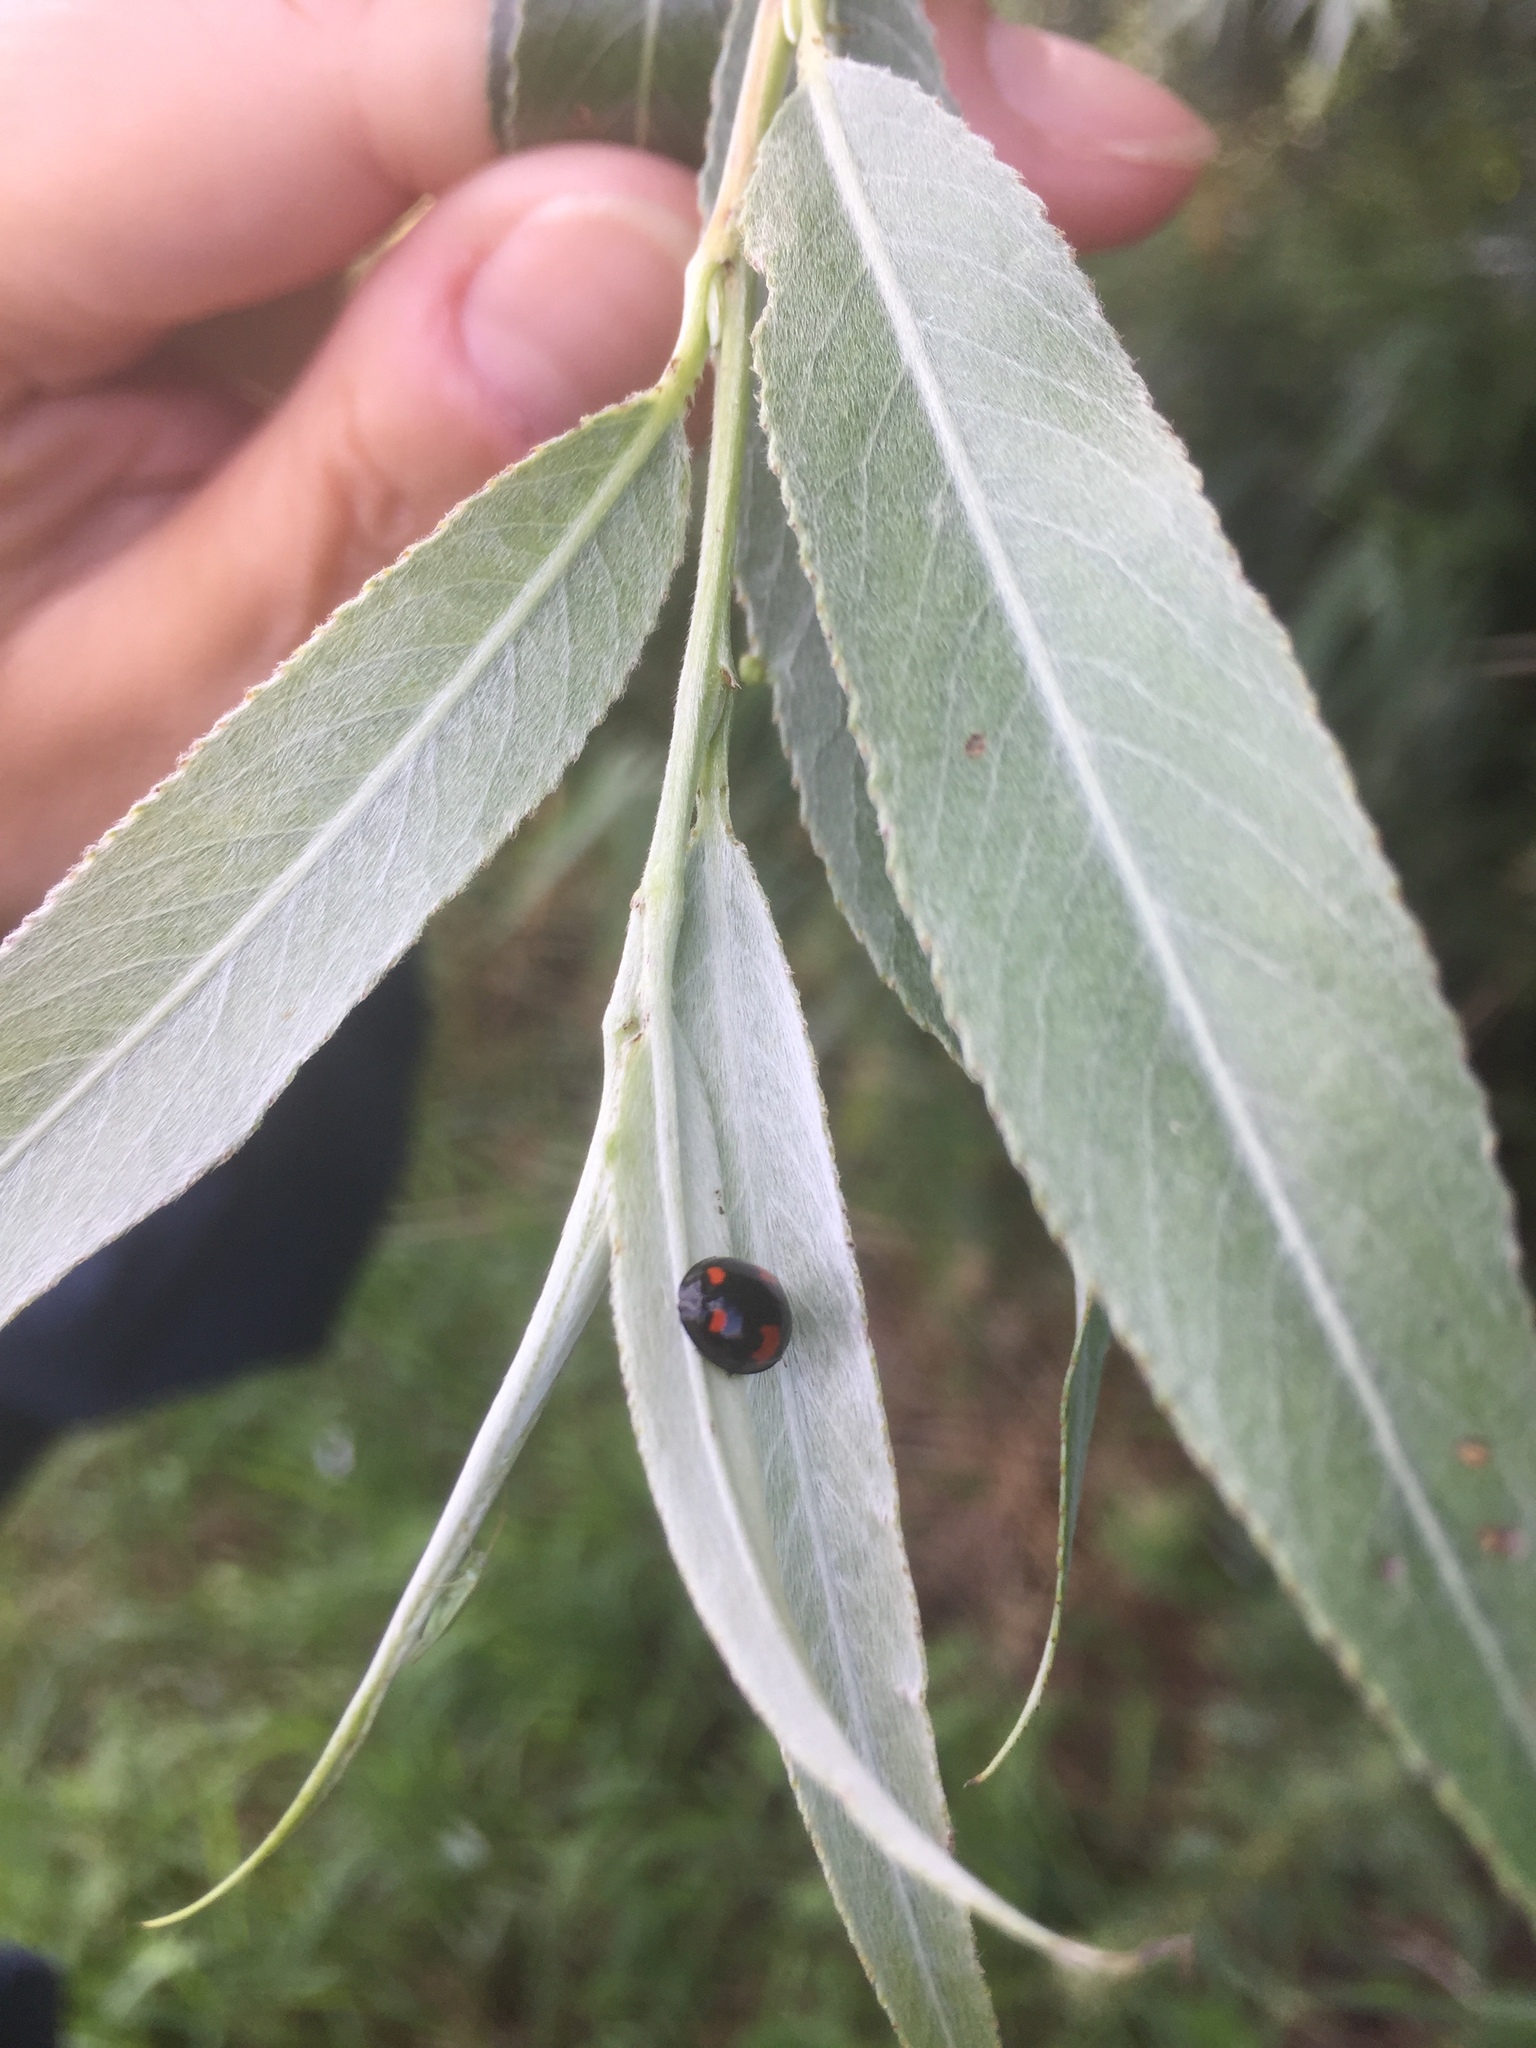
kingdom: Animalia
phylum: Arthropoda
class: Insecta
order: Coleoptera
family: Coccinellidae
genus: Brumus
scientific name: Brumus quadripustulatus
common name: Ladybird beetle
